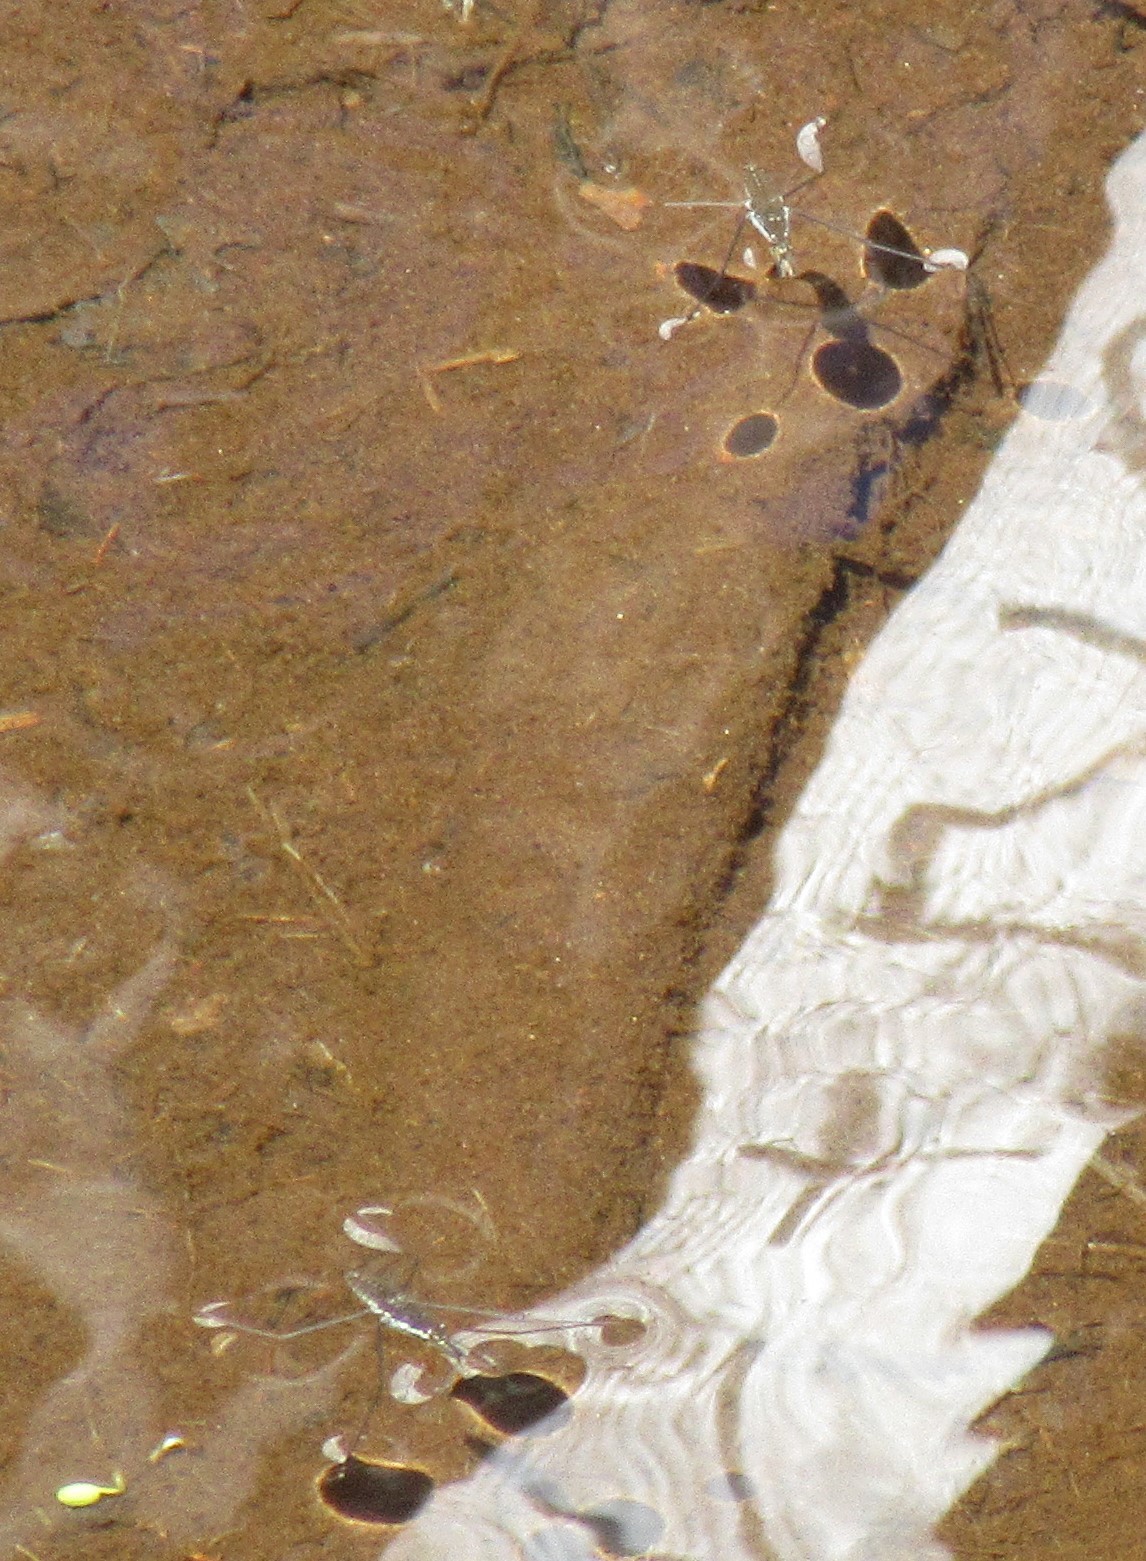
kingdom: Animalia
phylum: Arthropoda
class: Insecta
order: Hemiptera
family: Gerridae
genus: Aquarius
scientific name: Aquarius remigis
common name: Common water strider
